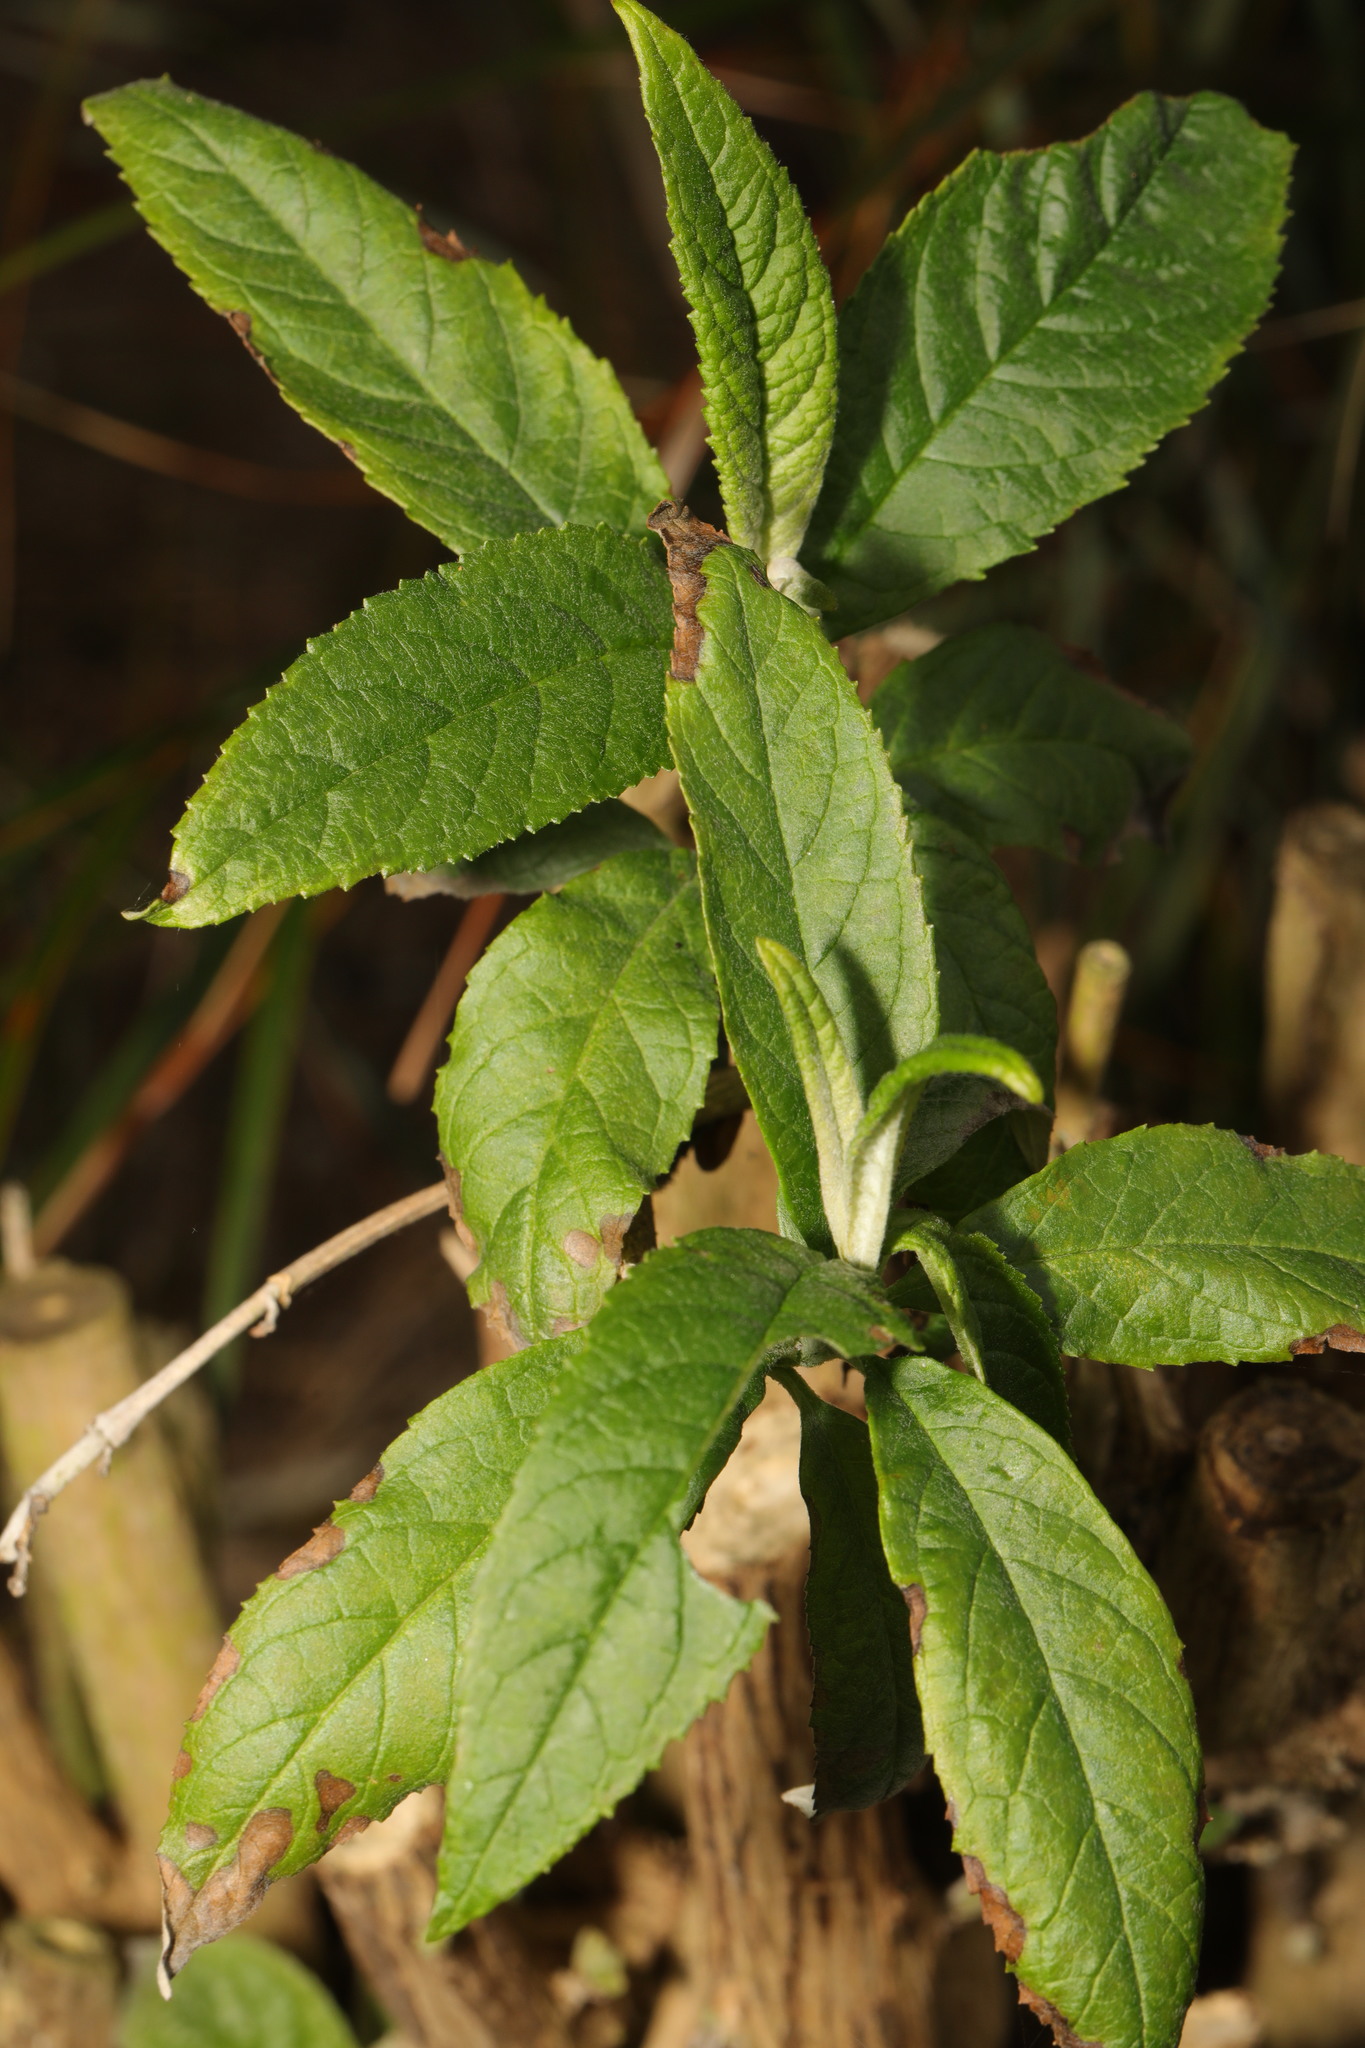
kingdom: Plantae
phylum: Tracheophyta
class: Magnoliopsida
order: Lamiales
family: Scrophulariaceae
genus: Buddleja
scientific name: Buddleja davidii
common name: Butterfly-bush
